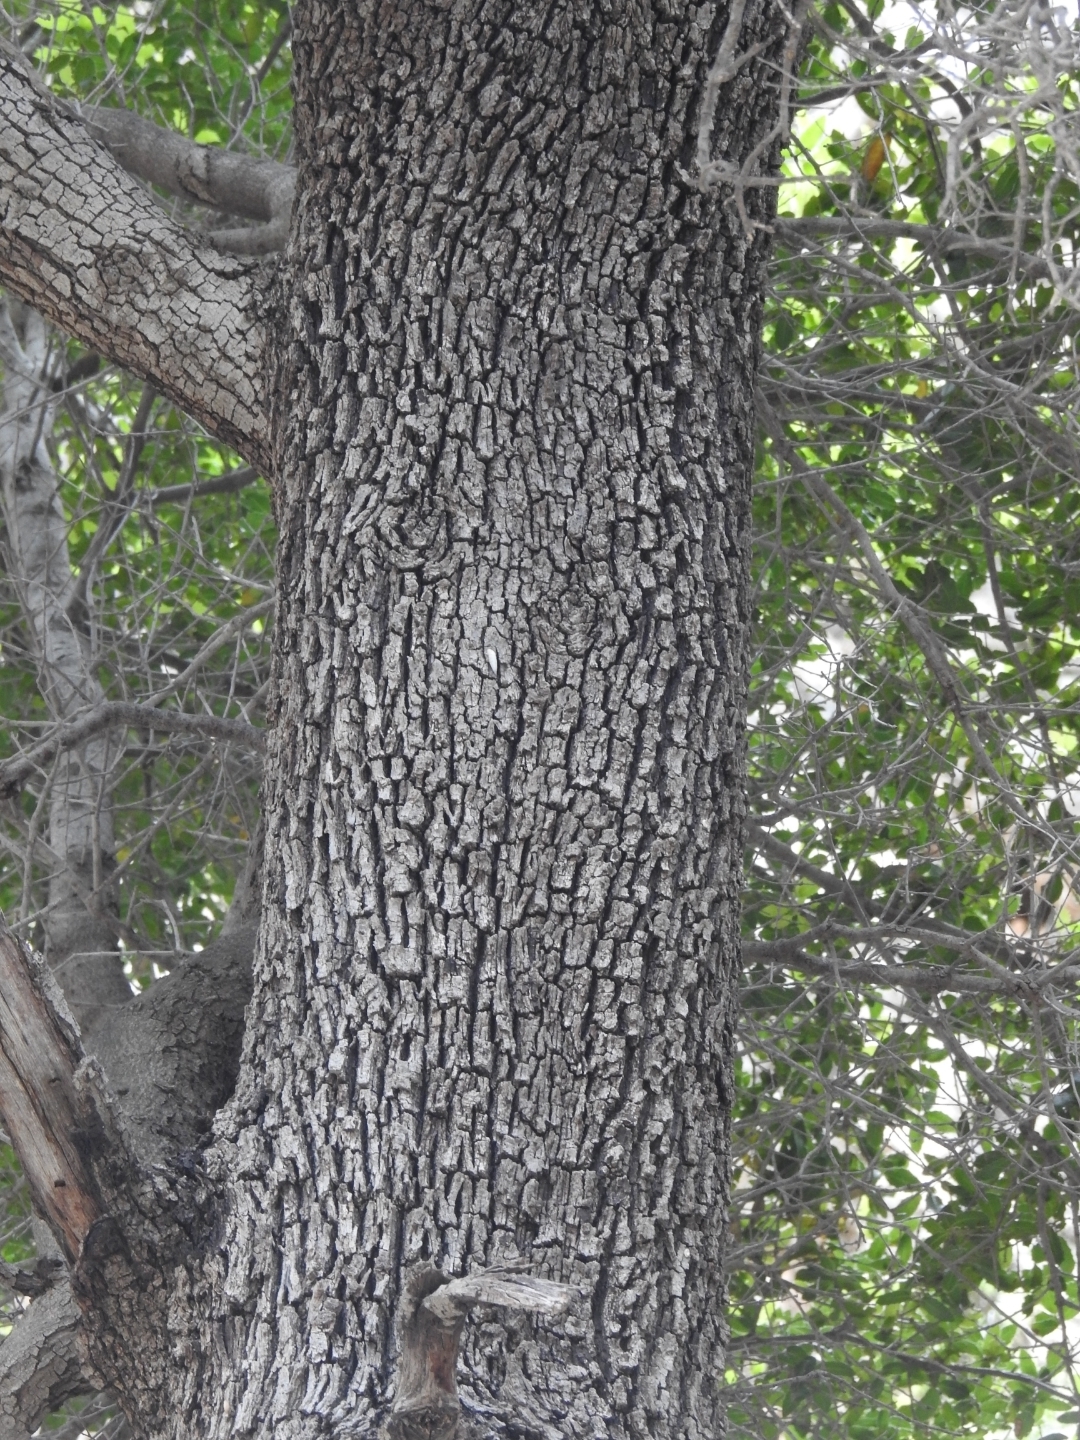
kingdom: Plantae
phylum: Tracheophyta
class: Magnoliopsida
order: Fagales
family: Fagaceae
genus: Quercus
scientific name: Quercus coccifera
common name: Kermes oak
